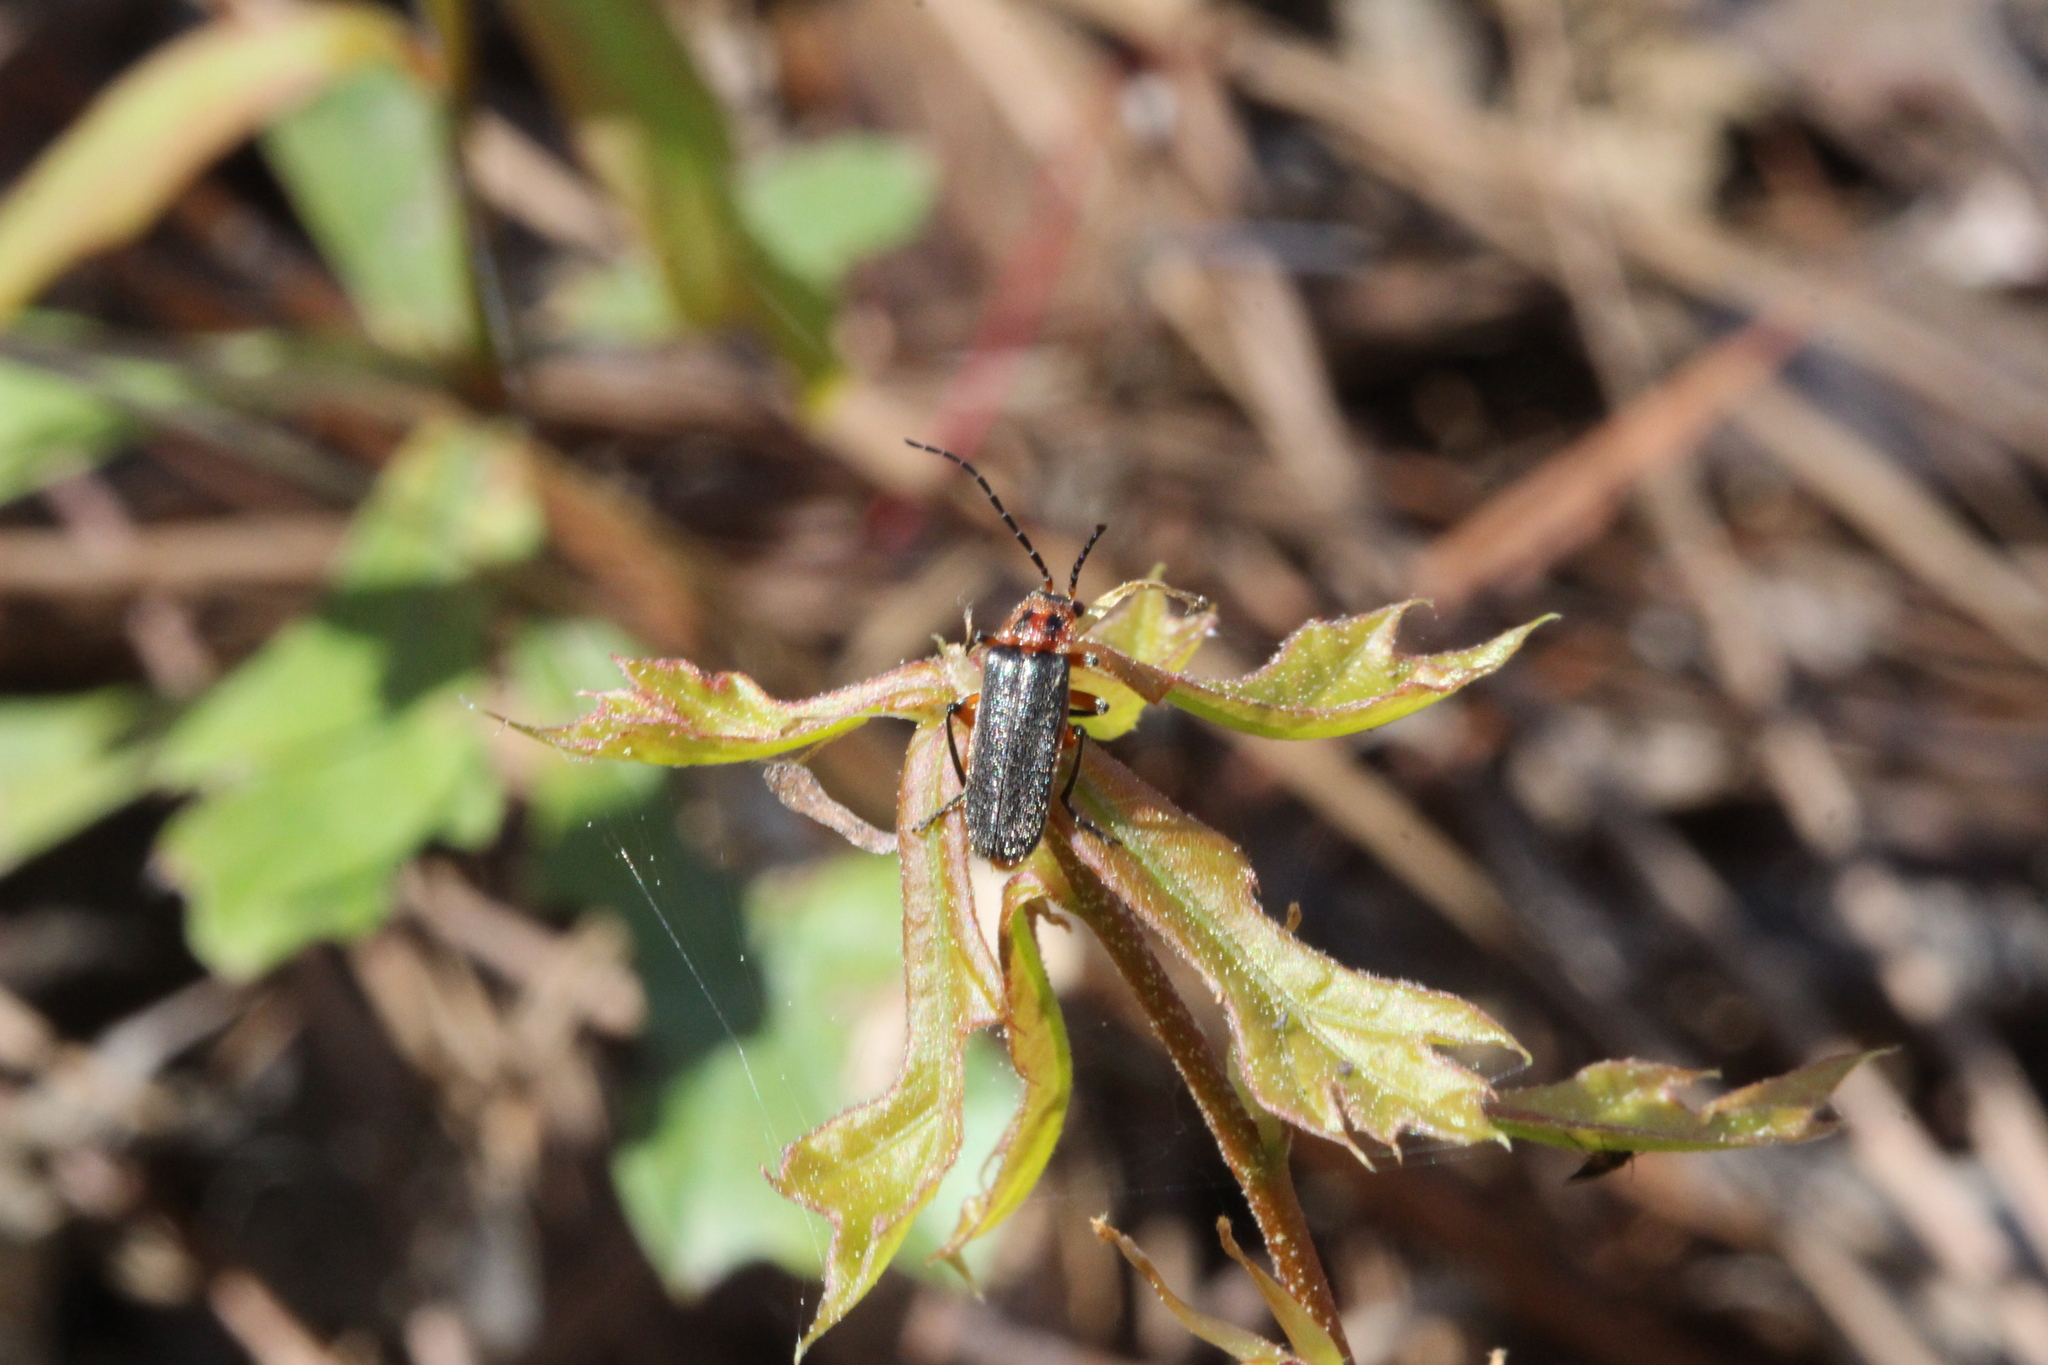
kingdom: Animalia
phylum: Arthropoda
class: Insecta
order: Coleoptera
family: Cantharidae
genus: Atalantycha
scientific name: Atalantycha bilineata
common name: Two-lined leatherwing
